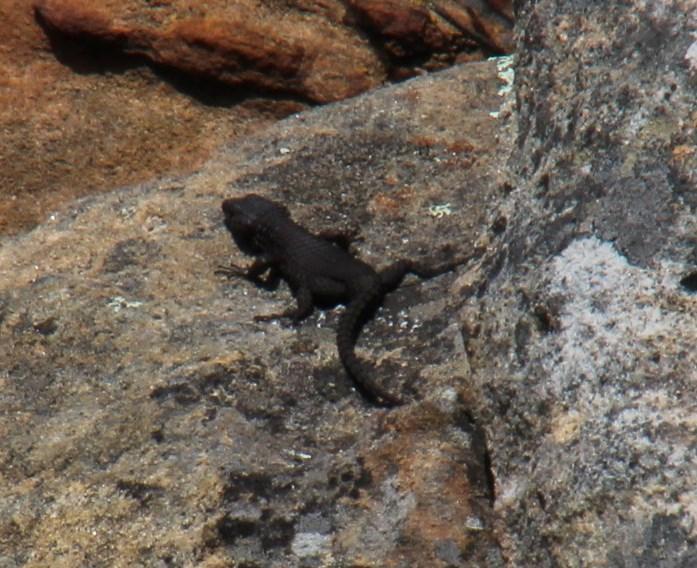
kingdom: Animalia
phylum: Chordata
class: Squamata
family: Cordylidae
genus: Cordylus
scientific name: Cordylus niger
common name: Black girdled lizard
